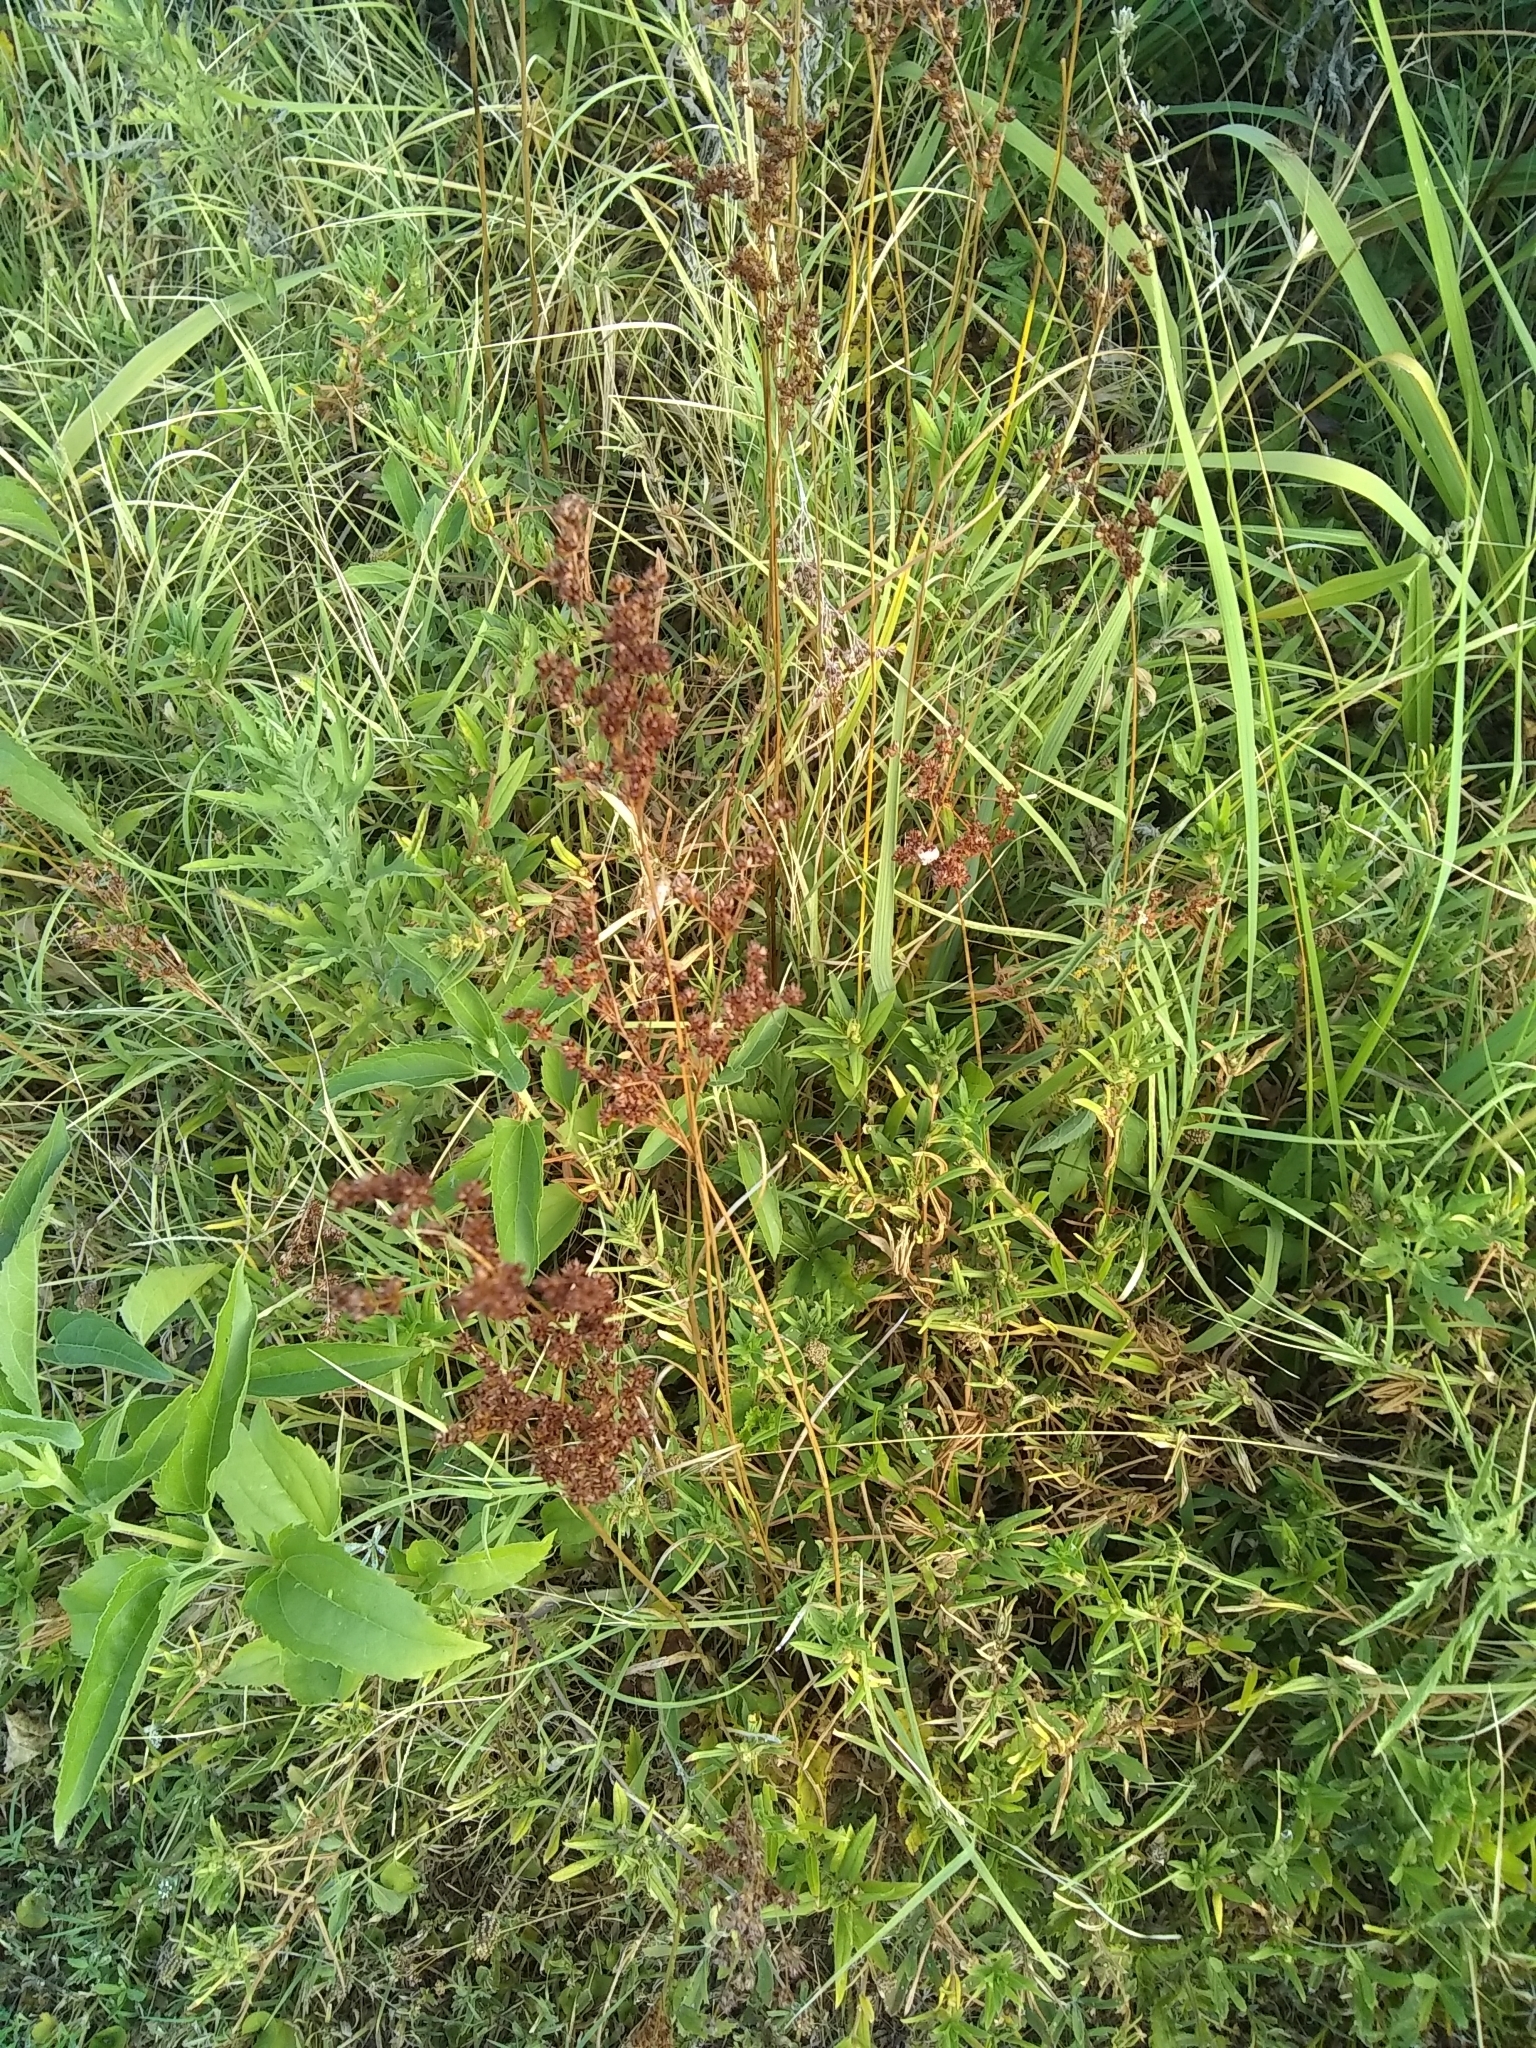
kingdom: Plantae
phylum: Tracheophyta
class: Liliopsida
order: Poales
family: Juncaceae
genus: Juncus
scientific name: Juncus marginatus
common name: Grass-leaf rush
